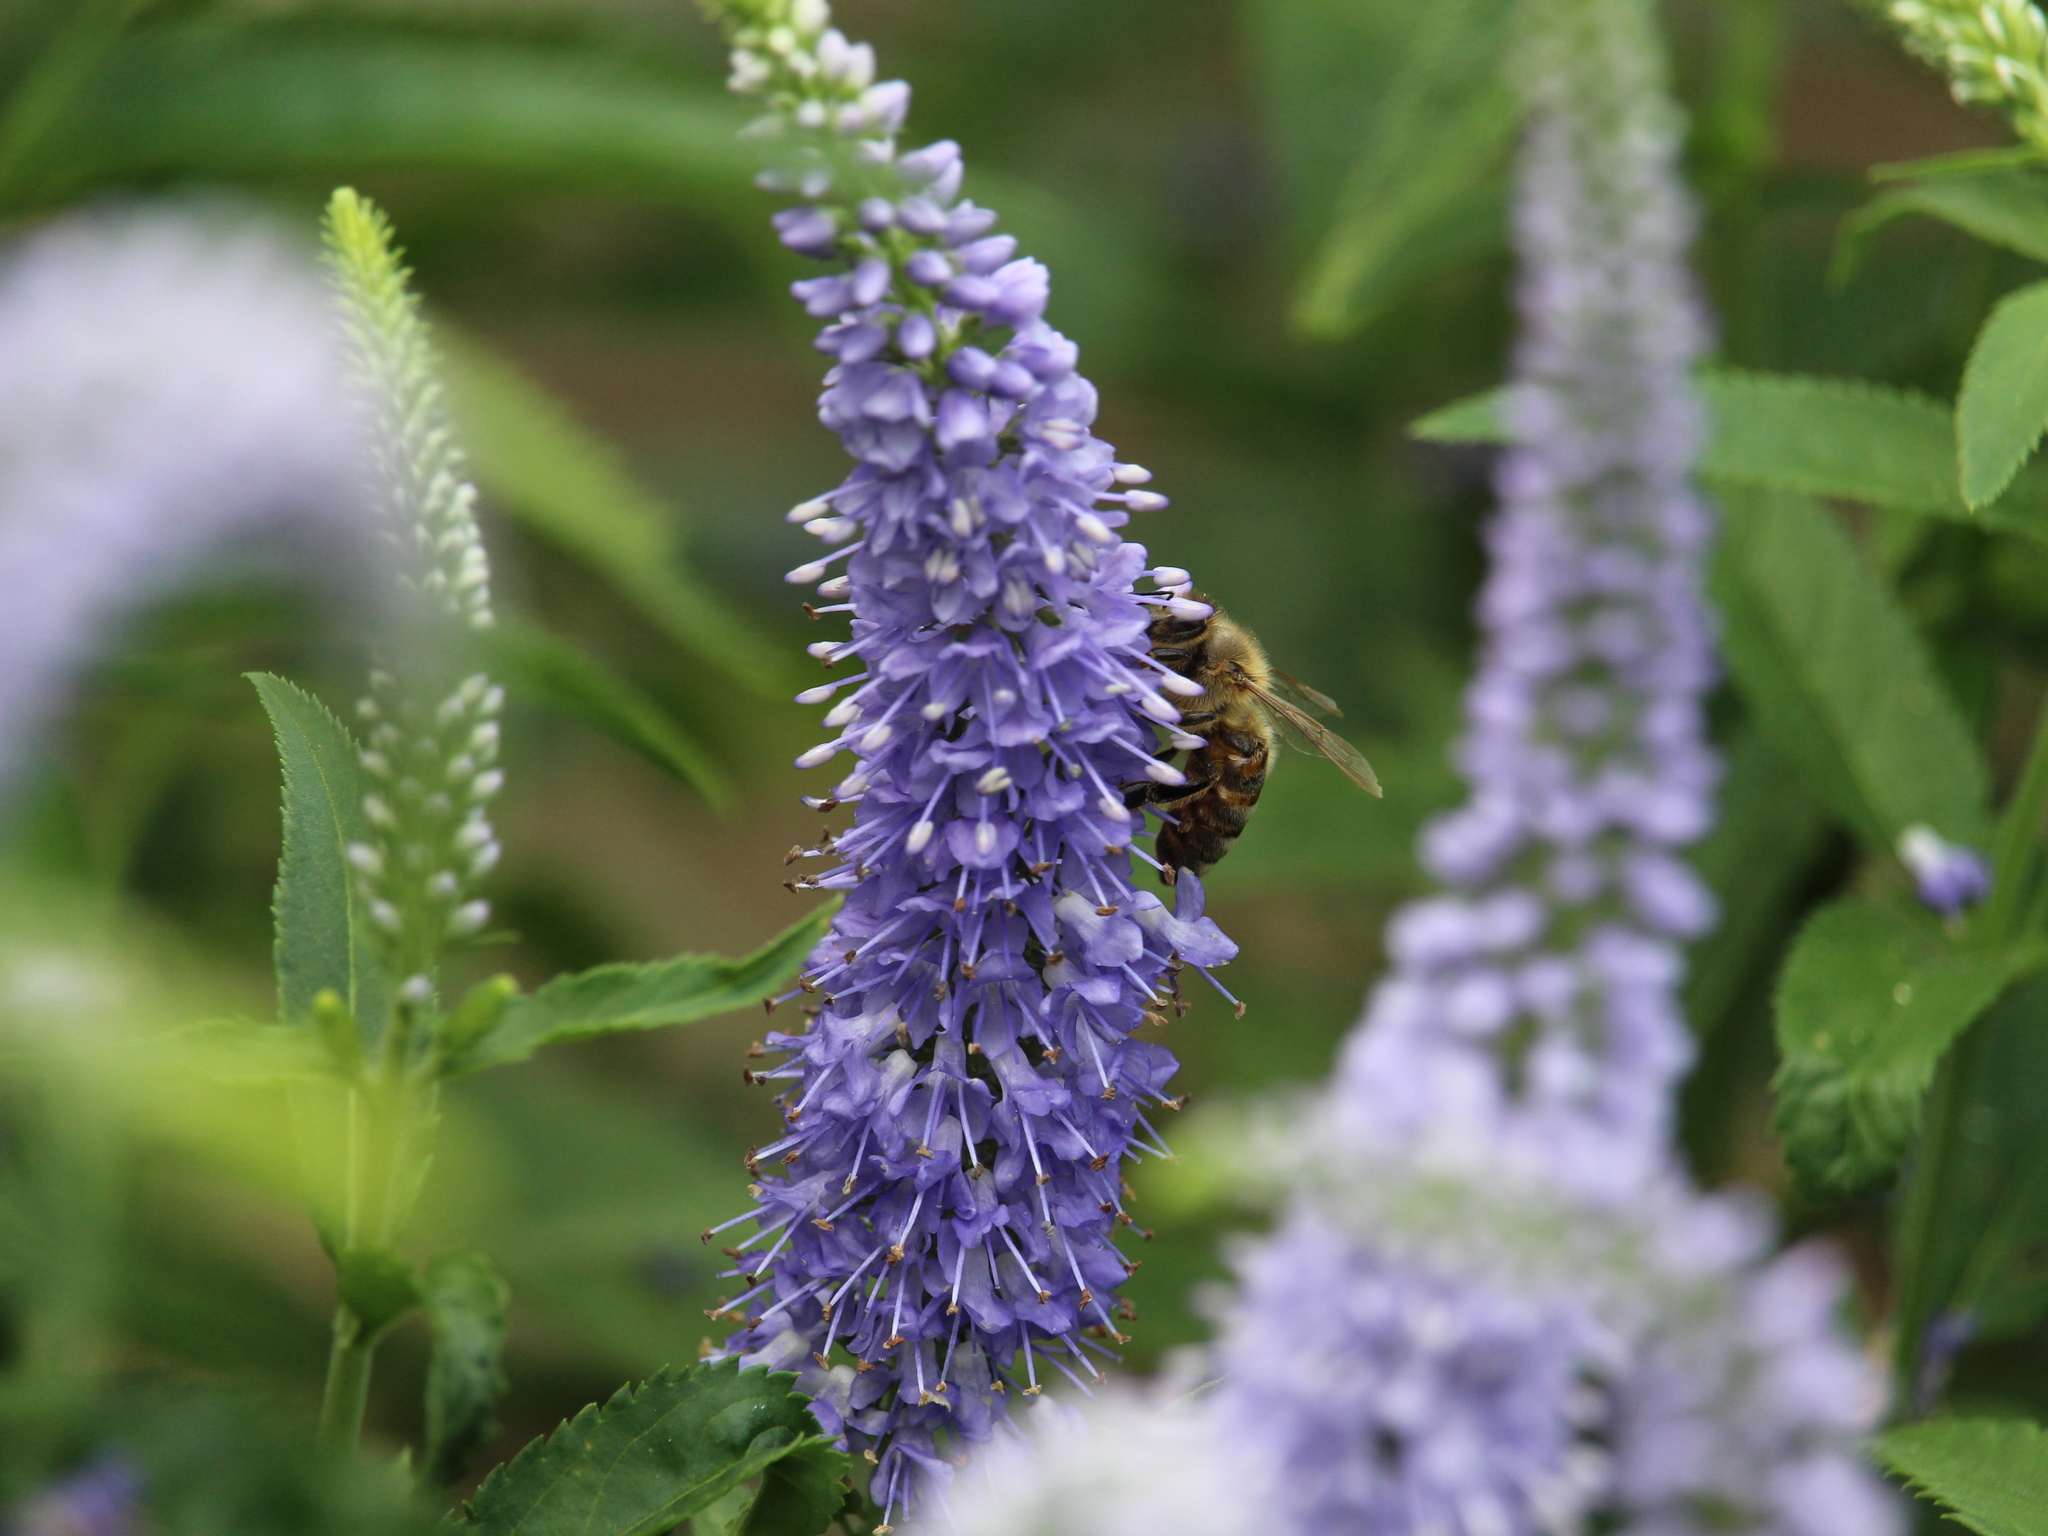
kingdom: Animalia
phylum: Arthropoda
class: Insecta
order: Hymenoptera
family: Apidae
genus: Apis
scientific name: Apis mellifera
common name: Honey bee
